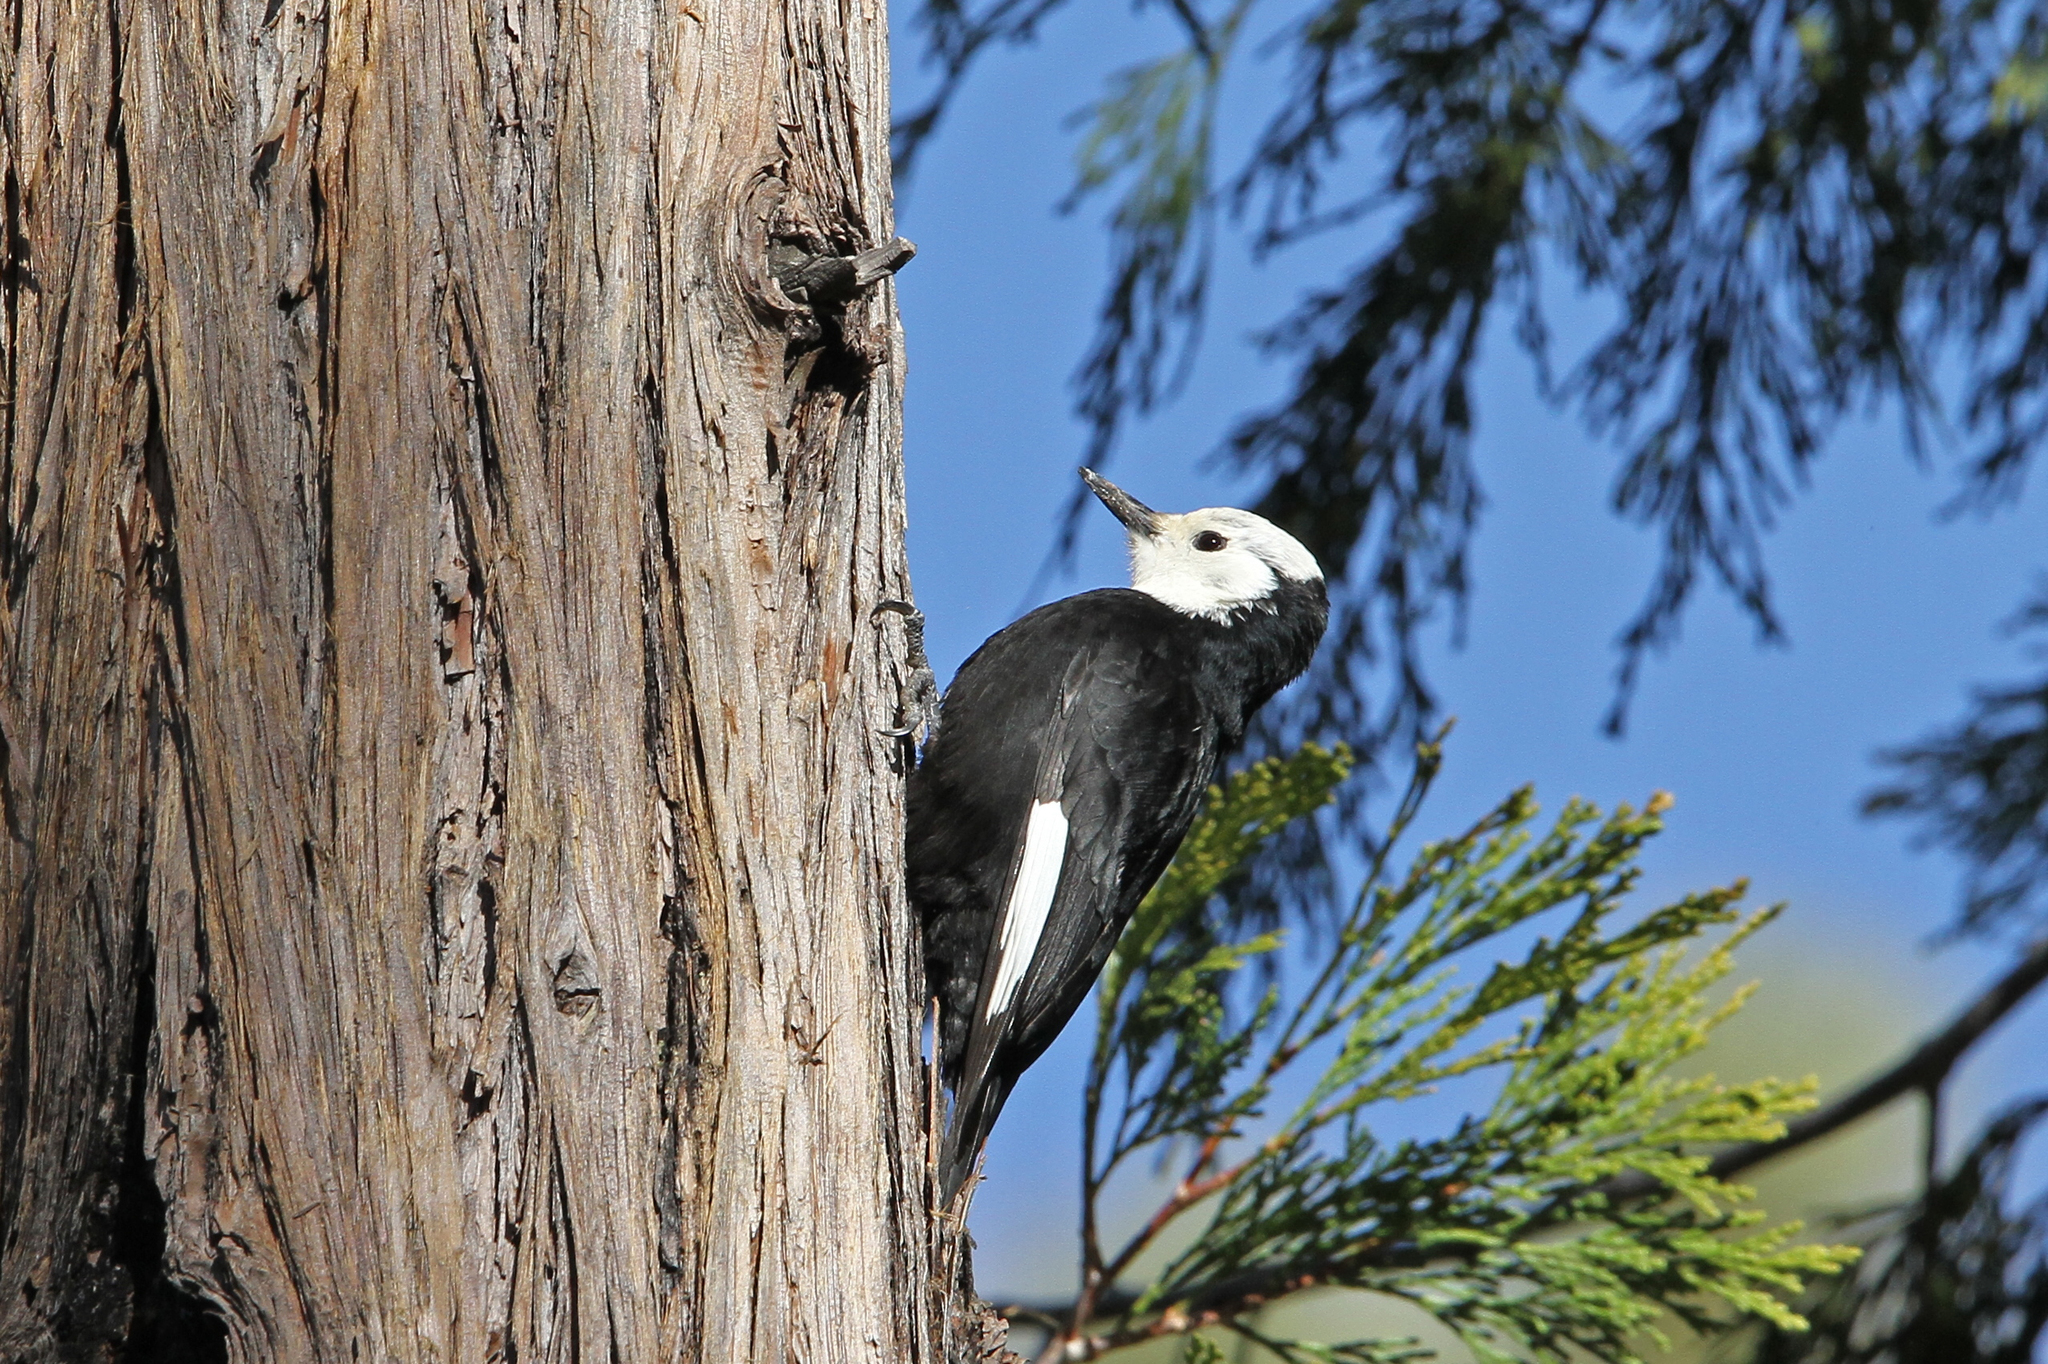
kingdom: Animalia
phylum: Chordata
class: Aves
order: Piciformes
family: Picidae
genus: Leuconotopicus
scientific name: Leuconotopicus albolarvatus
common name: White-headed woodpecker
